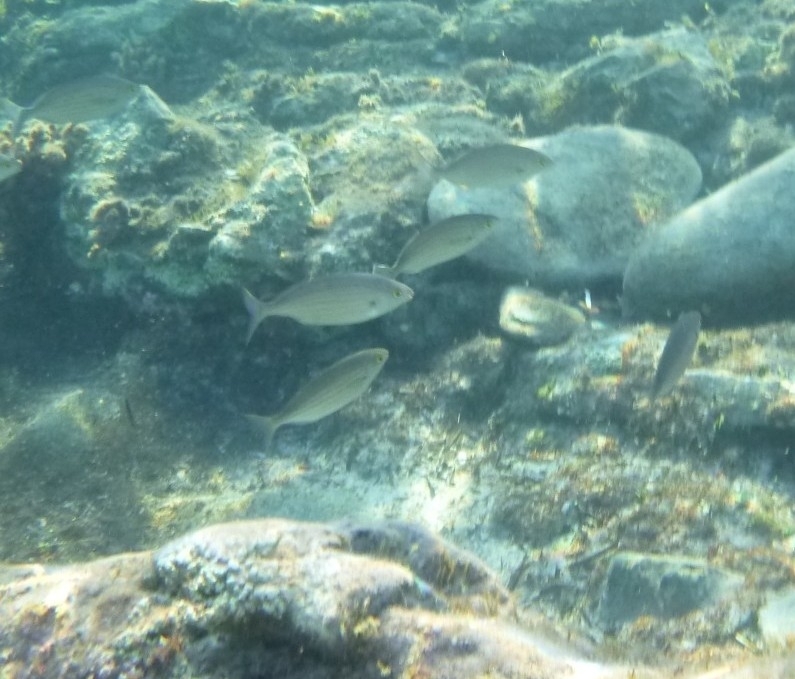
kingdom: Animalia
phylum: Chordata
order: Perciformes
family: Sparidae
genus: Sarpa
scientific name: Sarpa salpa
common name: Salema
